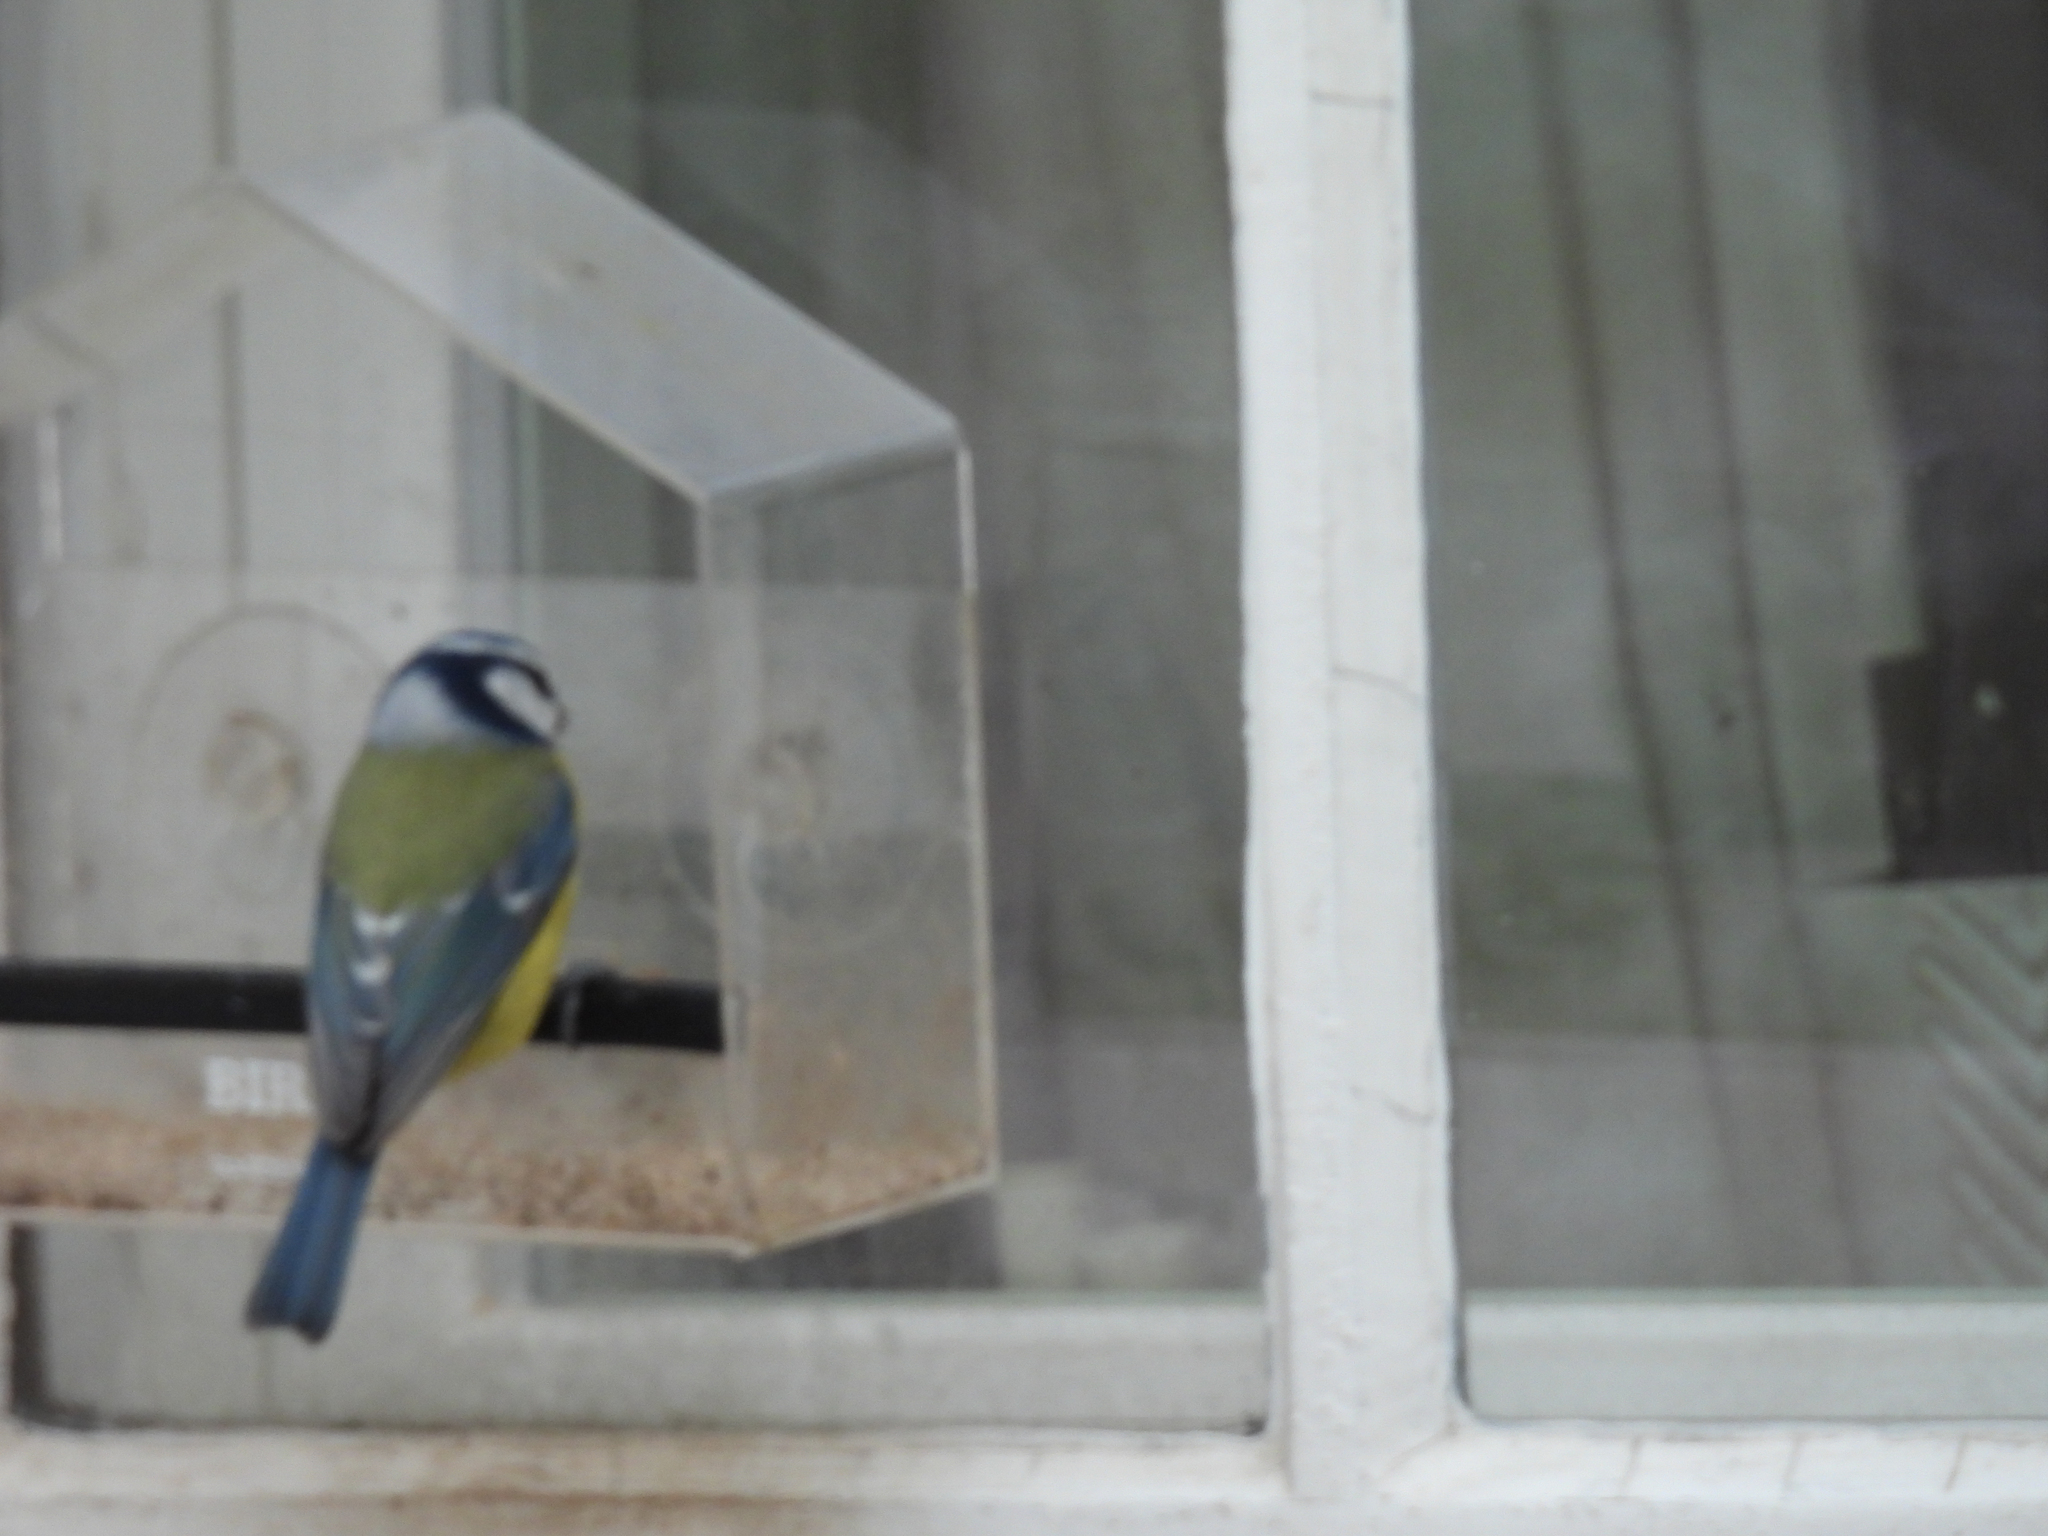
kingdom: Animalia
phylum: Chordata
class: Aves
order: Passeriformes
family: Paridae
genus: Cyanistes
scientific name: Cyanistes caeruleus
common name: Eurasian blue tit
